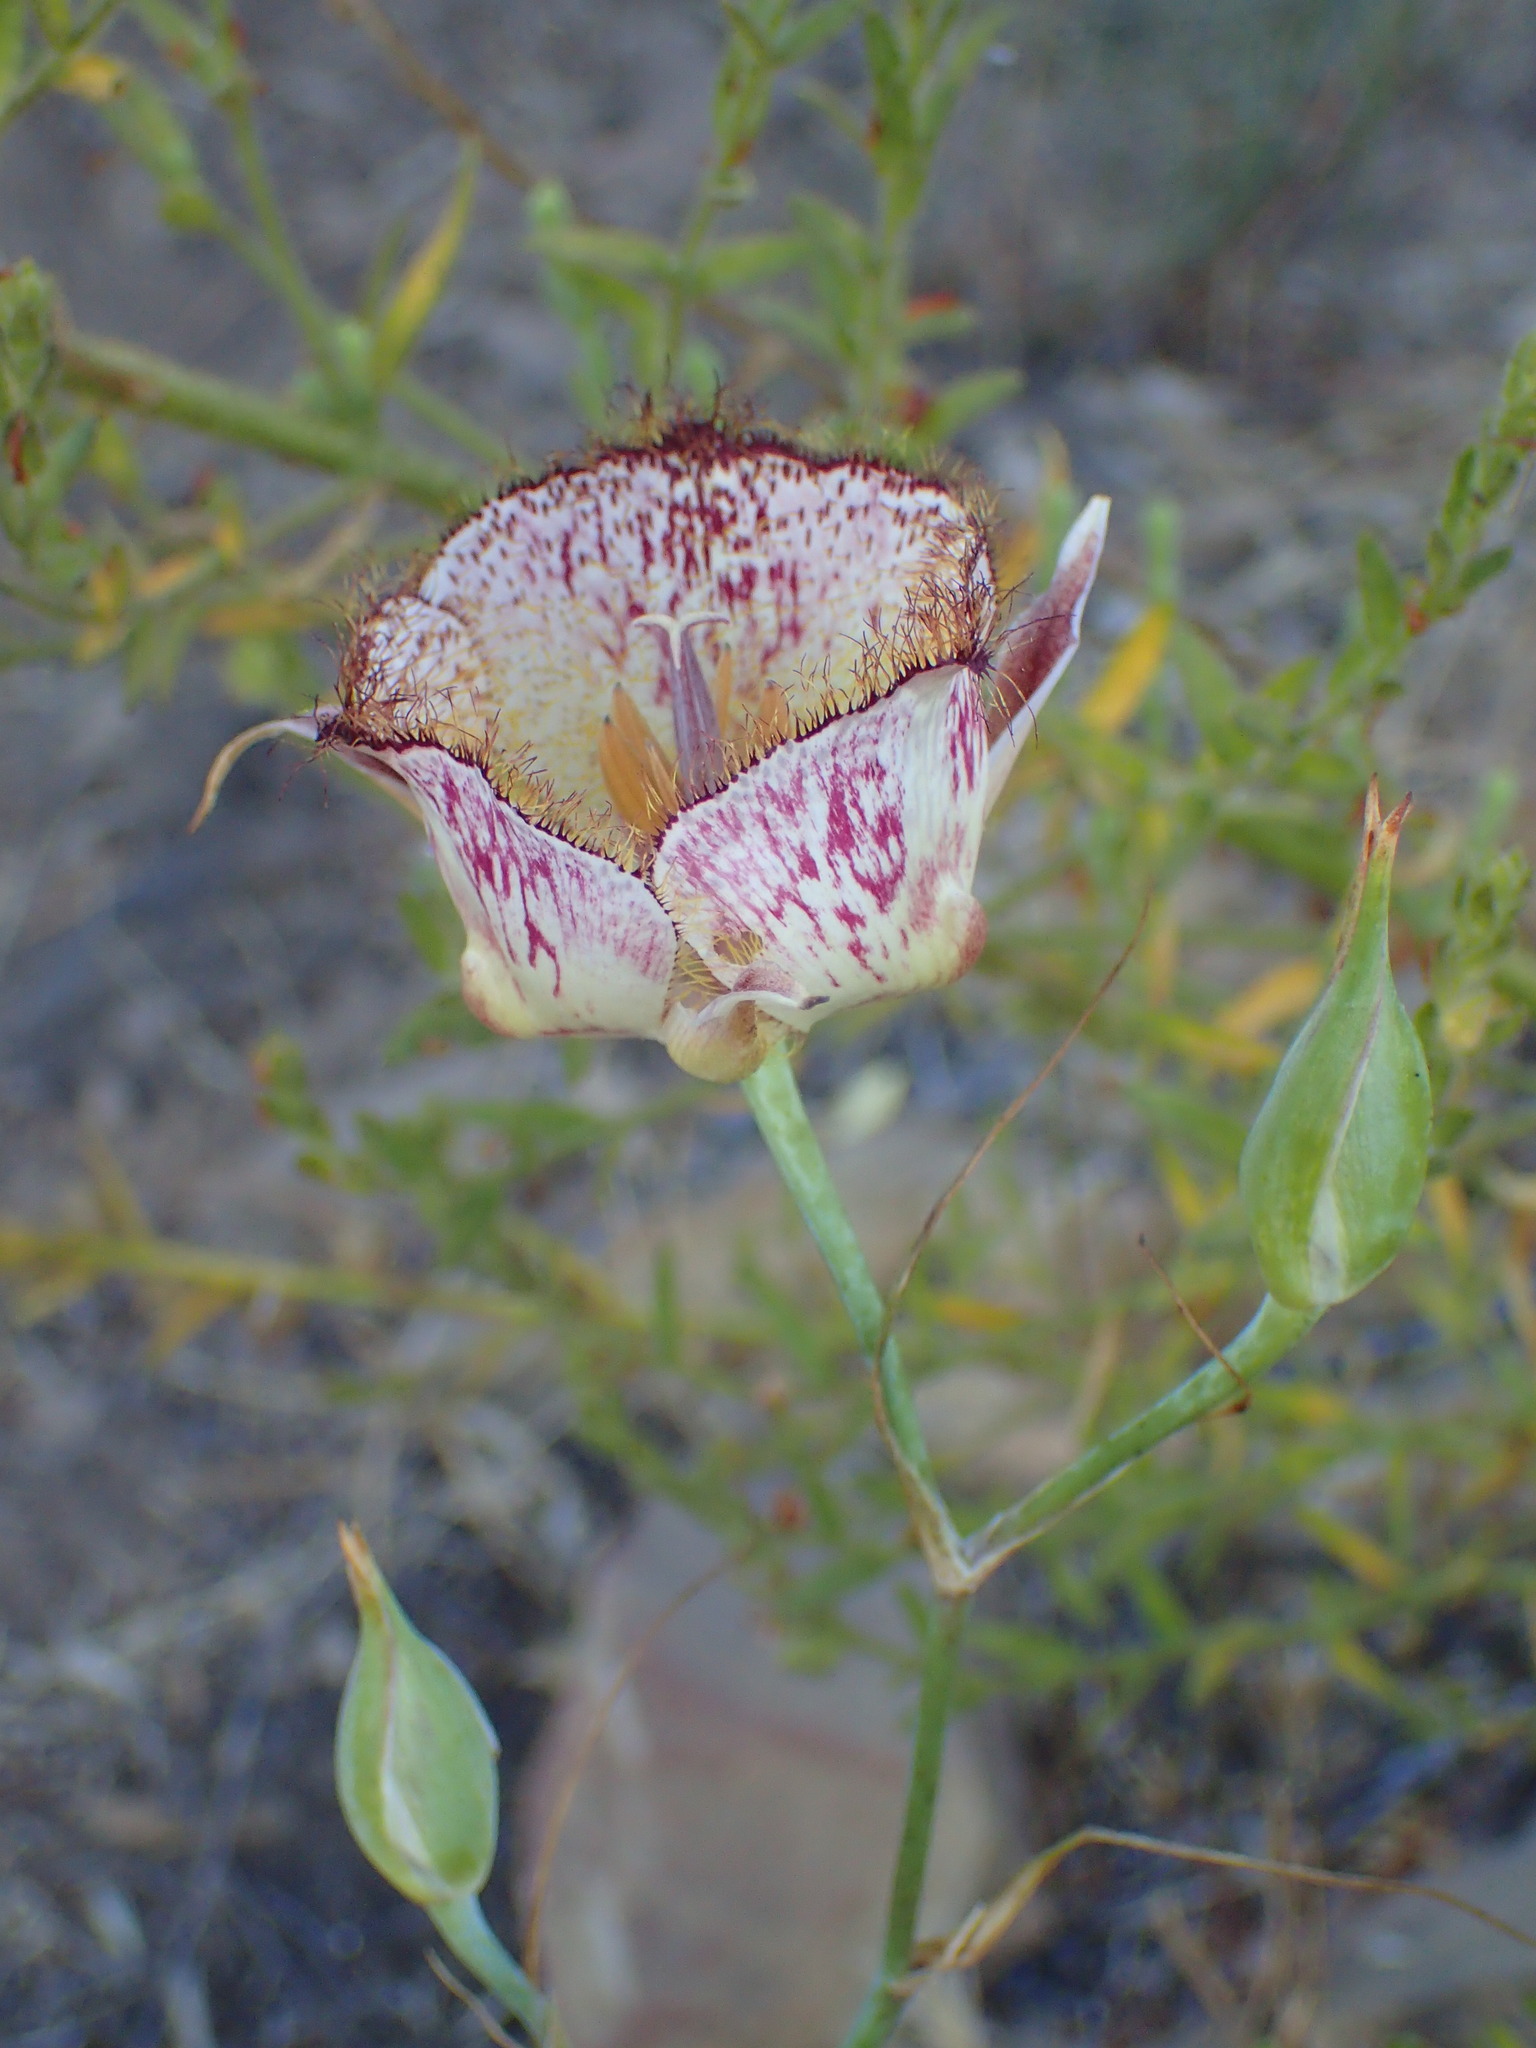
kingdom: Plantae
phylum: Tracheophyta
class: Liliopsida
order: Liliales
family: Liliaceae
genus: Calochortus
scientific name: Calochortus fimbriatus
